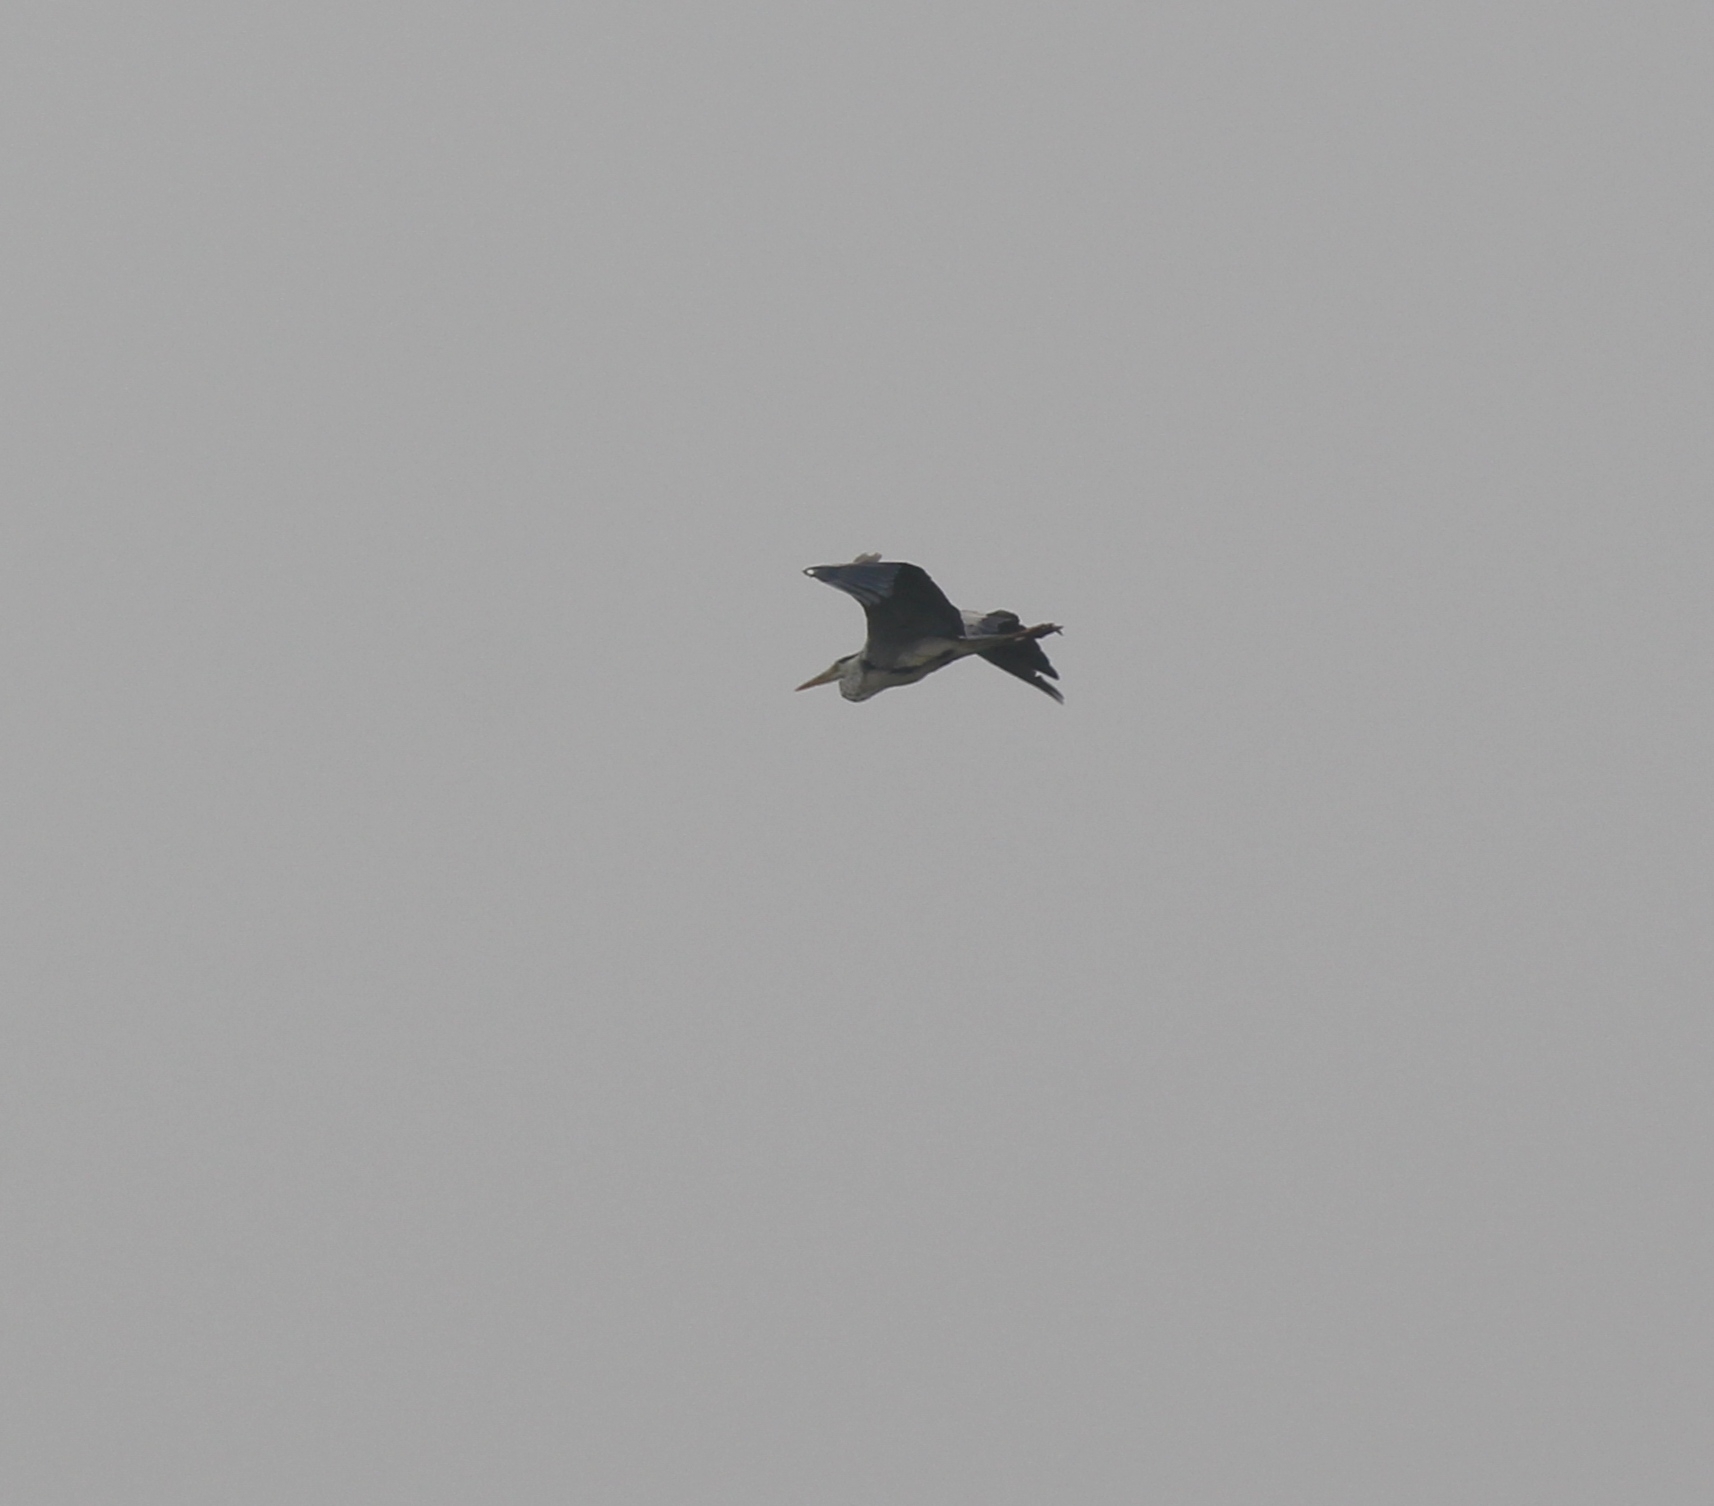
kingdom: Animalia
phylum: Chordata
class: Aves
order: Pelecaniformes
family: Ardeidae
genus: Ardea
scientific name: Ardea cinerea
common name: Grey heron
